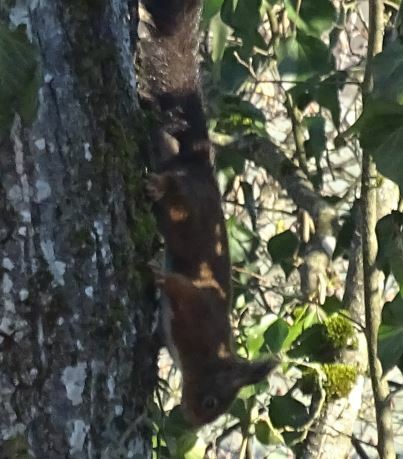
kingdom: Animalia
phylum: Chordata
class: Mammalia
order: Rodentia
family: Sciuridae
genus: Sciurus
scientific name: Sciurus vulgaris
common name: Eurasian red squirrel
